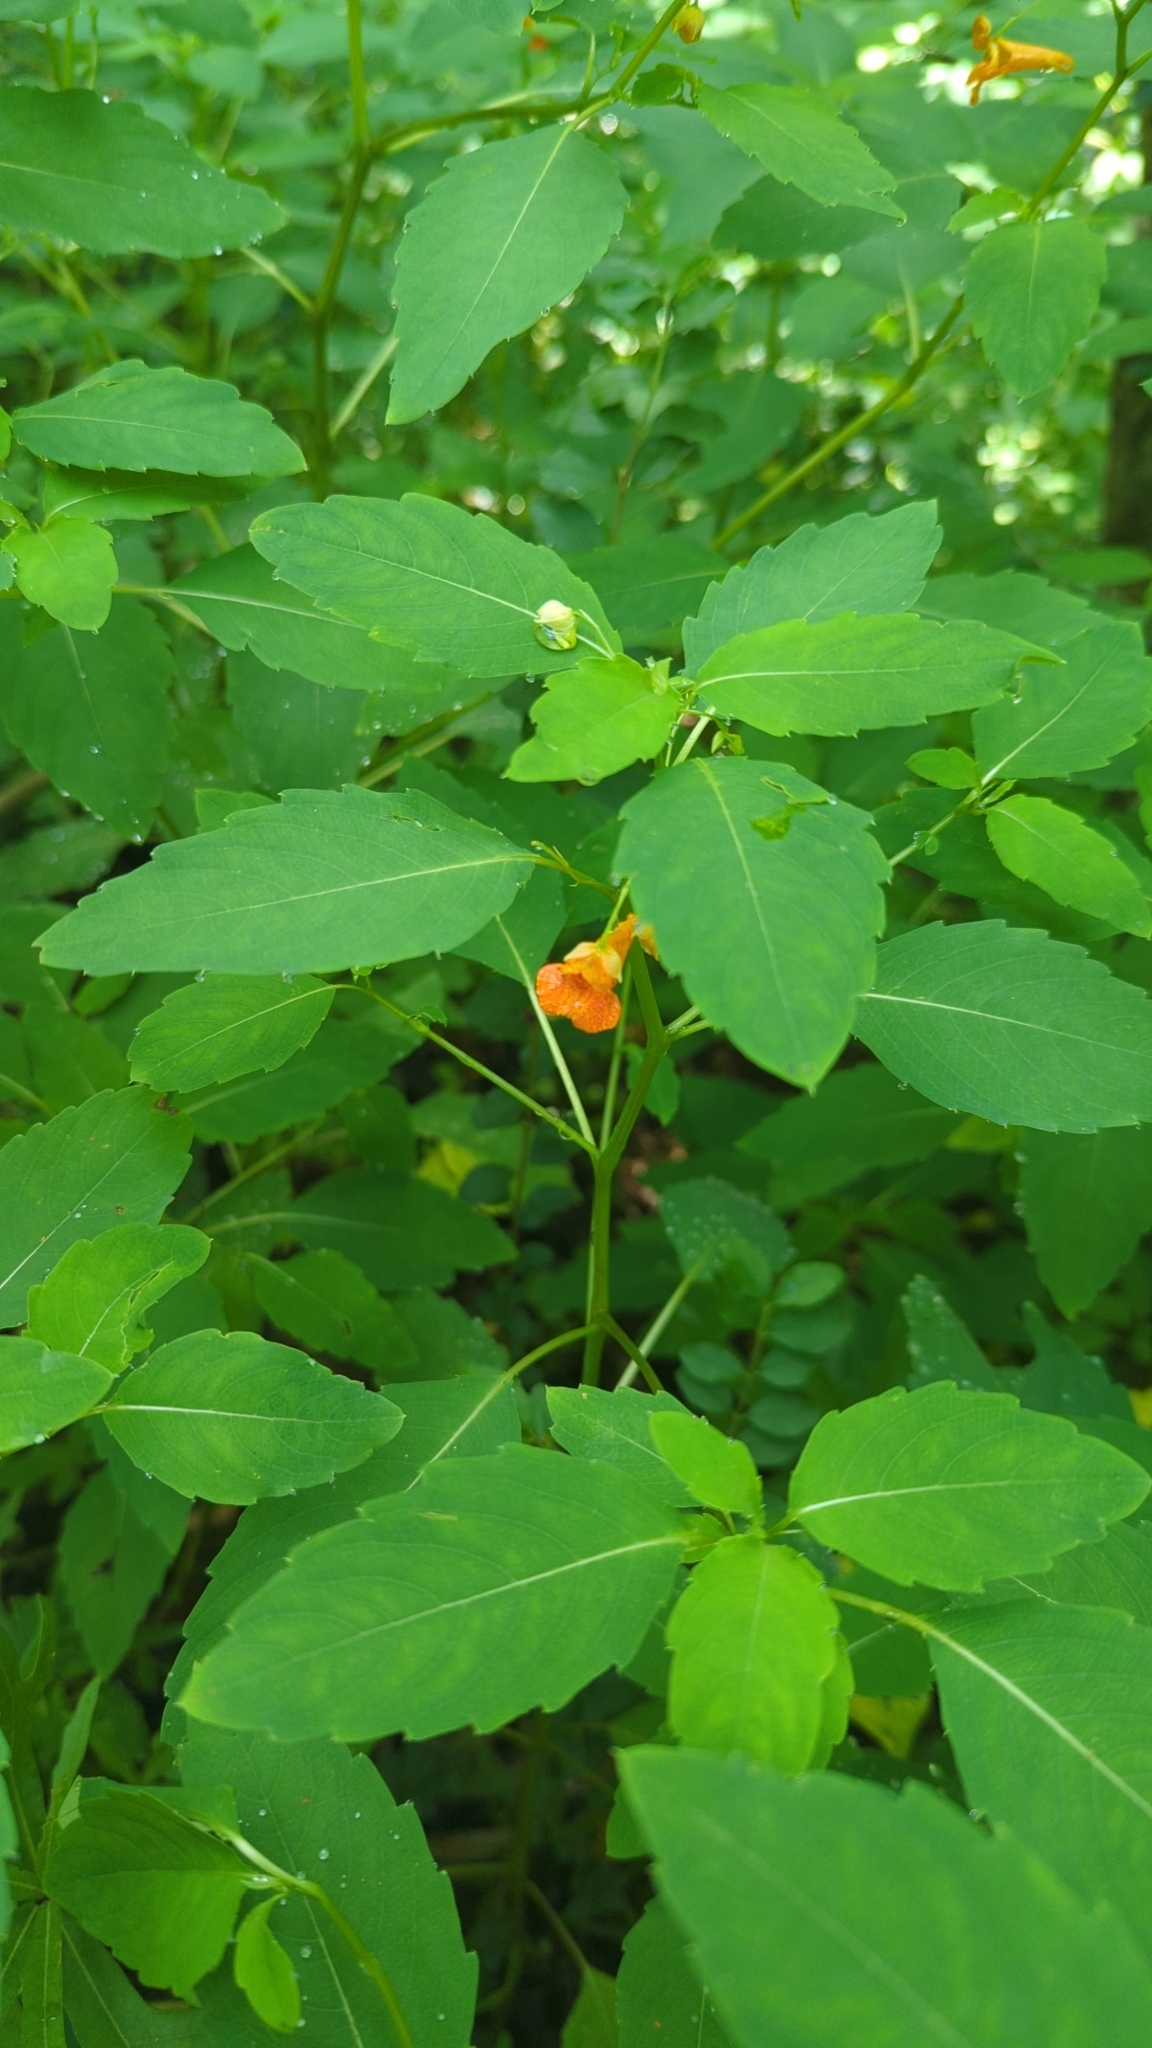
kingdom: Plantae
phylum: Tracheophyta
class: Magnoliopsida
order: Ericales
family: Balsaminaceae
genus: Impatiens
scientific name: Impatiens capensis
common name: Orange balsam
